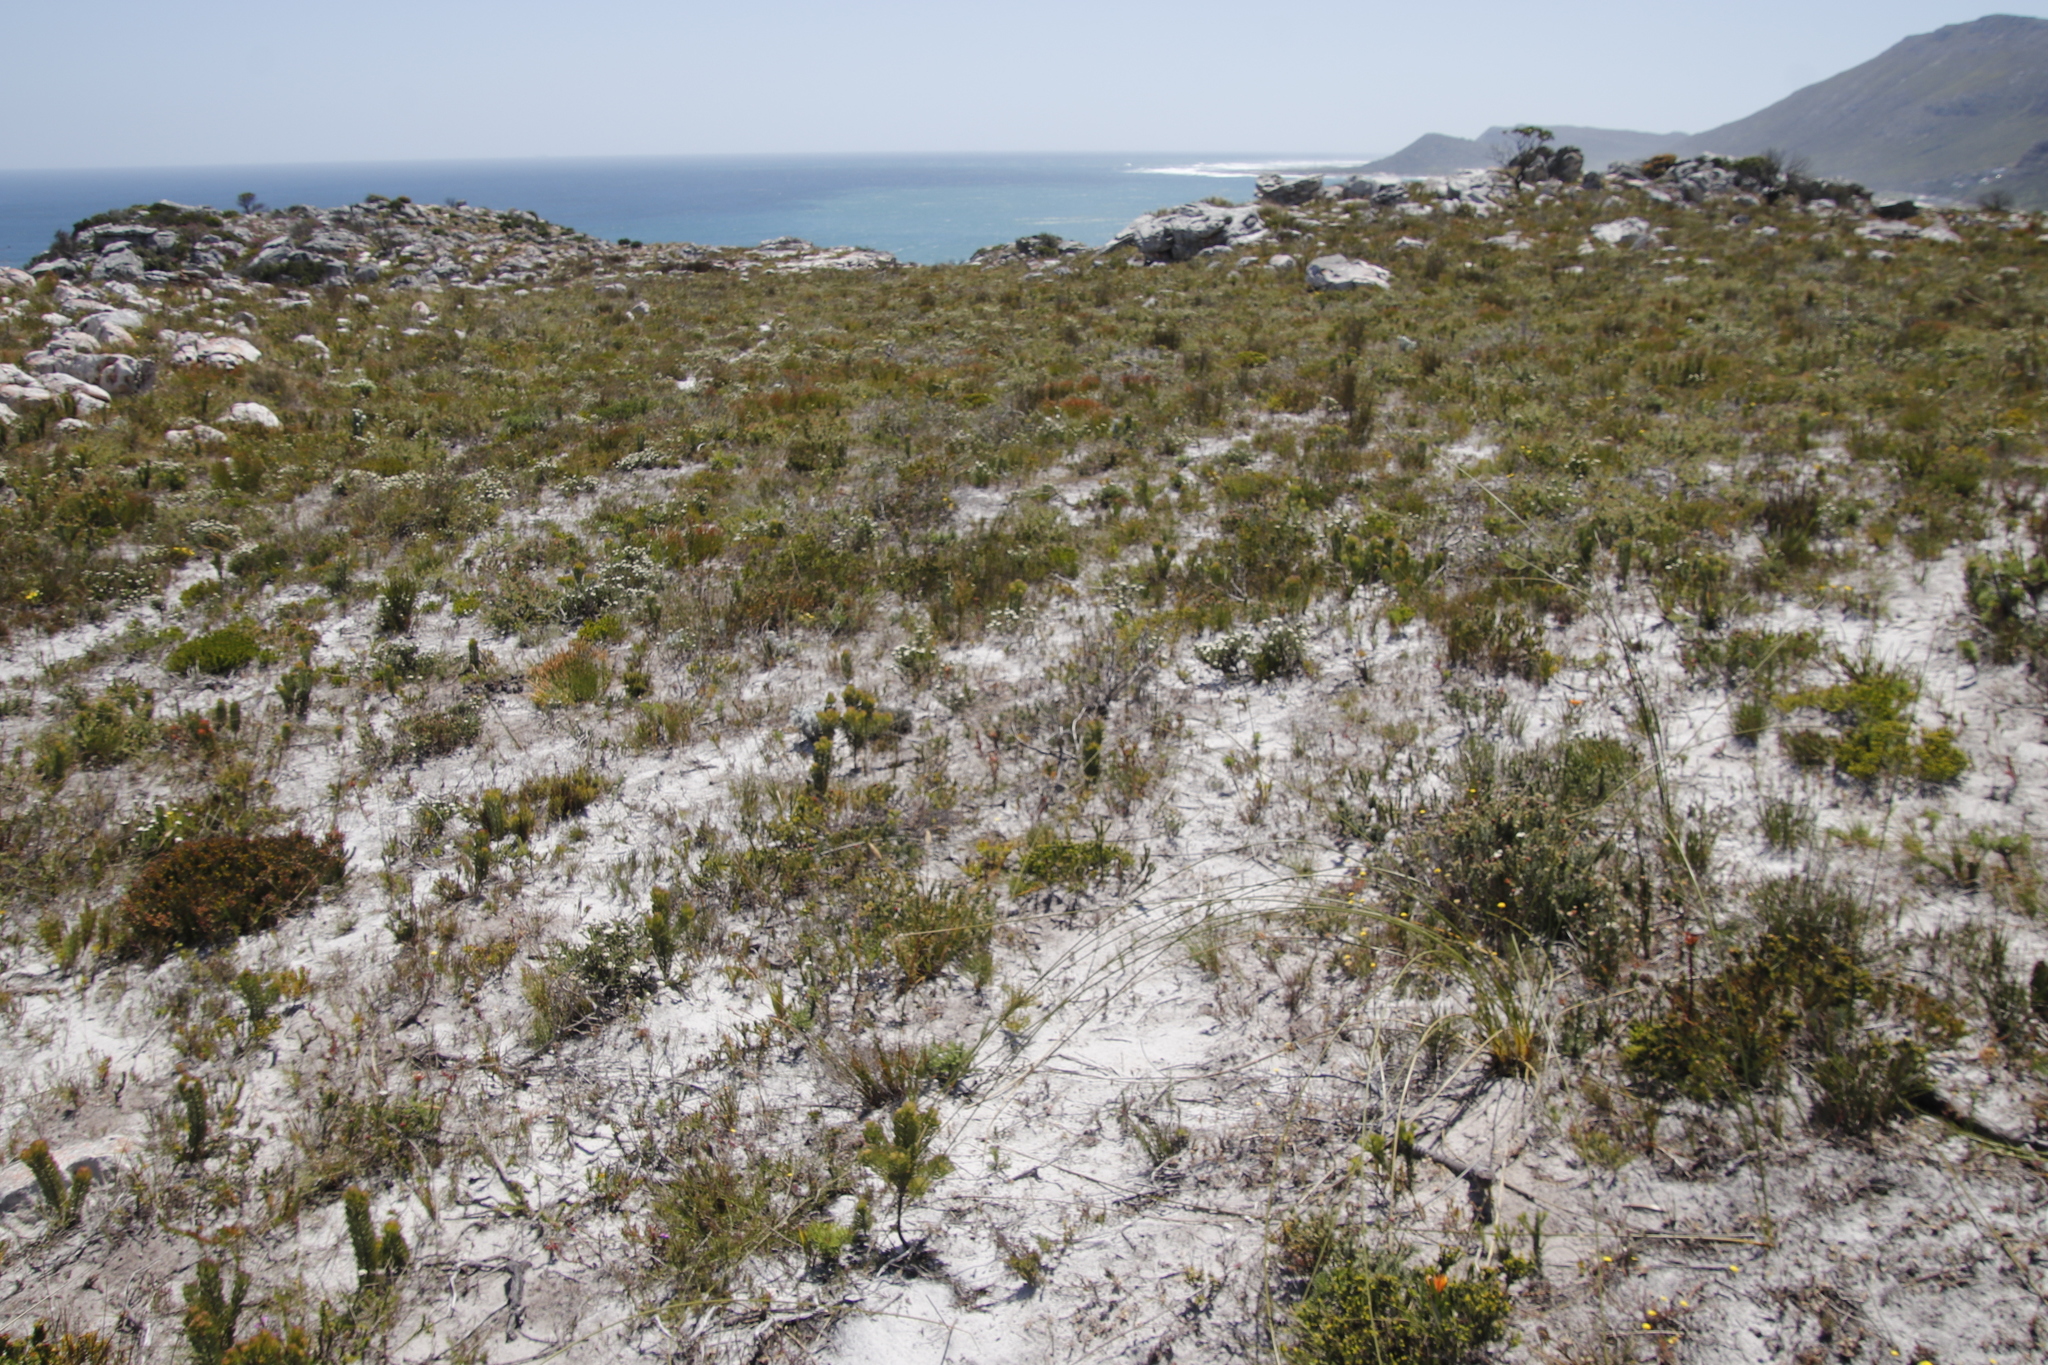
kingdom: Plantae
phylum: Tracheophyta
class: Magnoliopsida
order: Proteales
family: Proteaceae
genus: Serruria
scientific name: Serruria villosa
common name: Golden spiderhead
